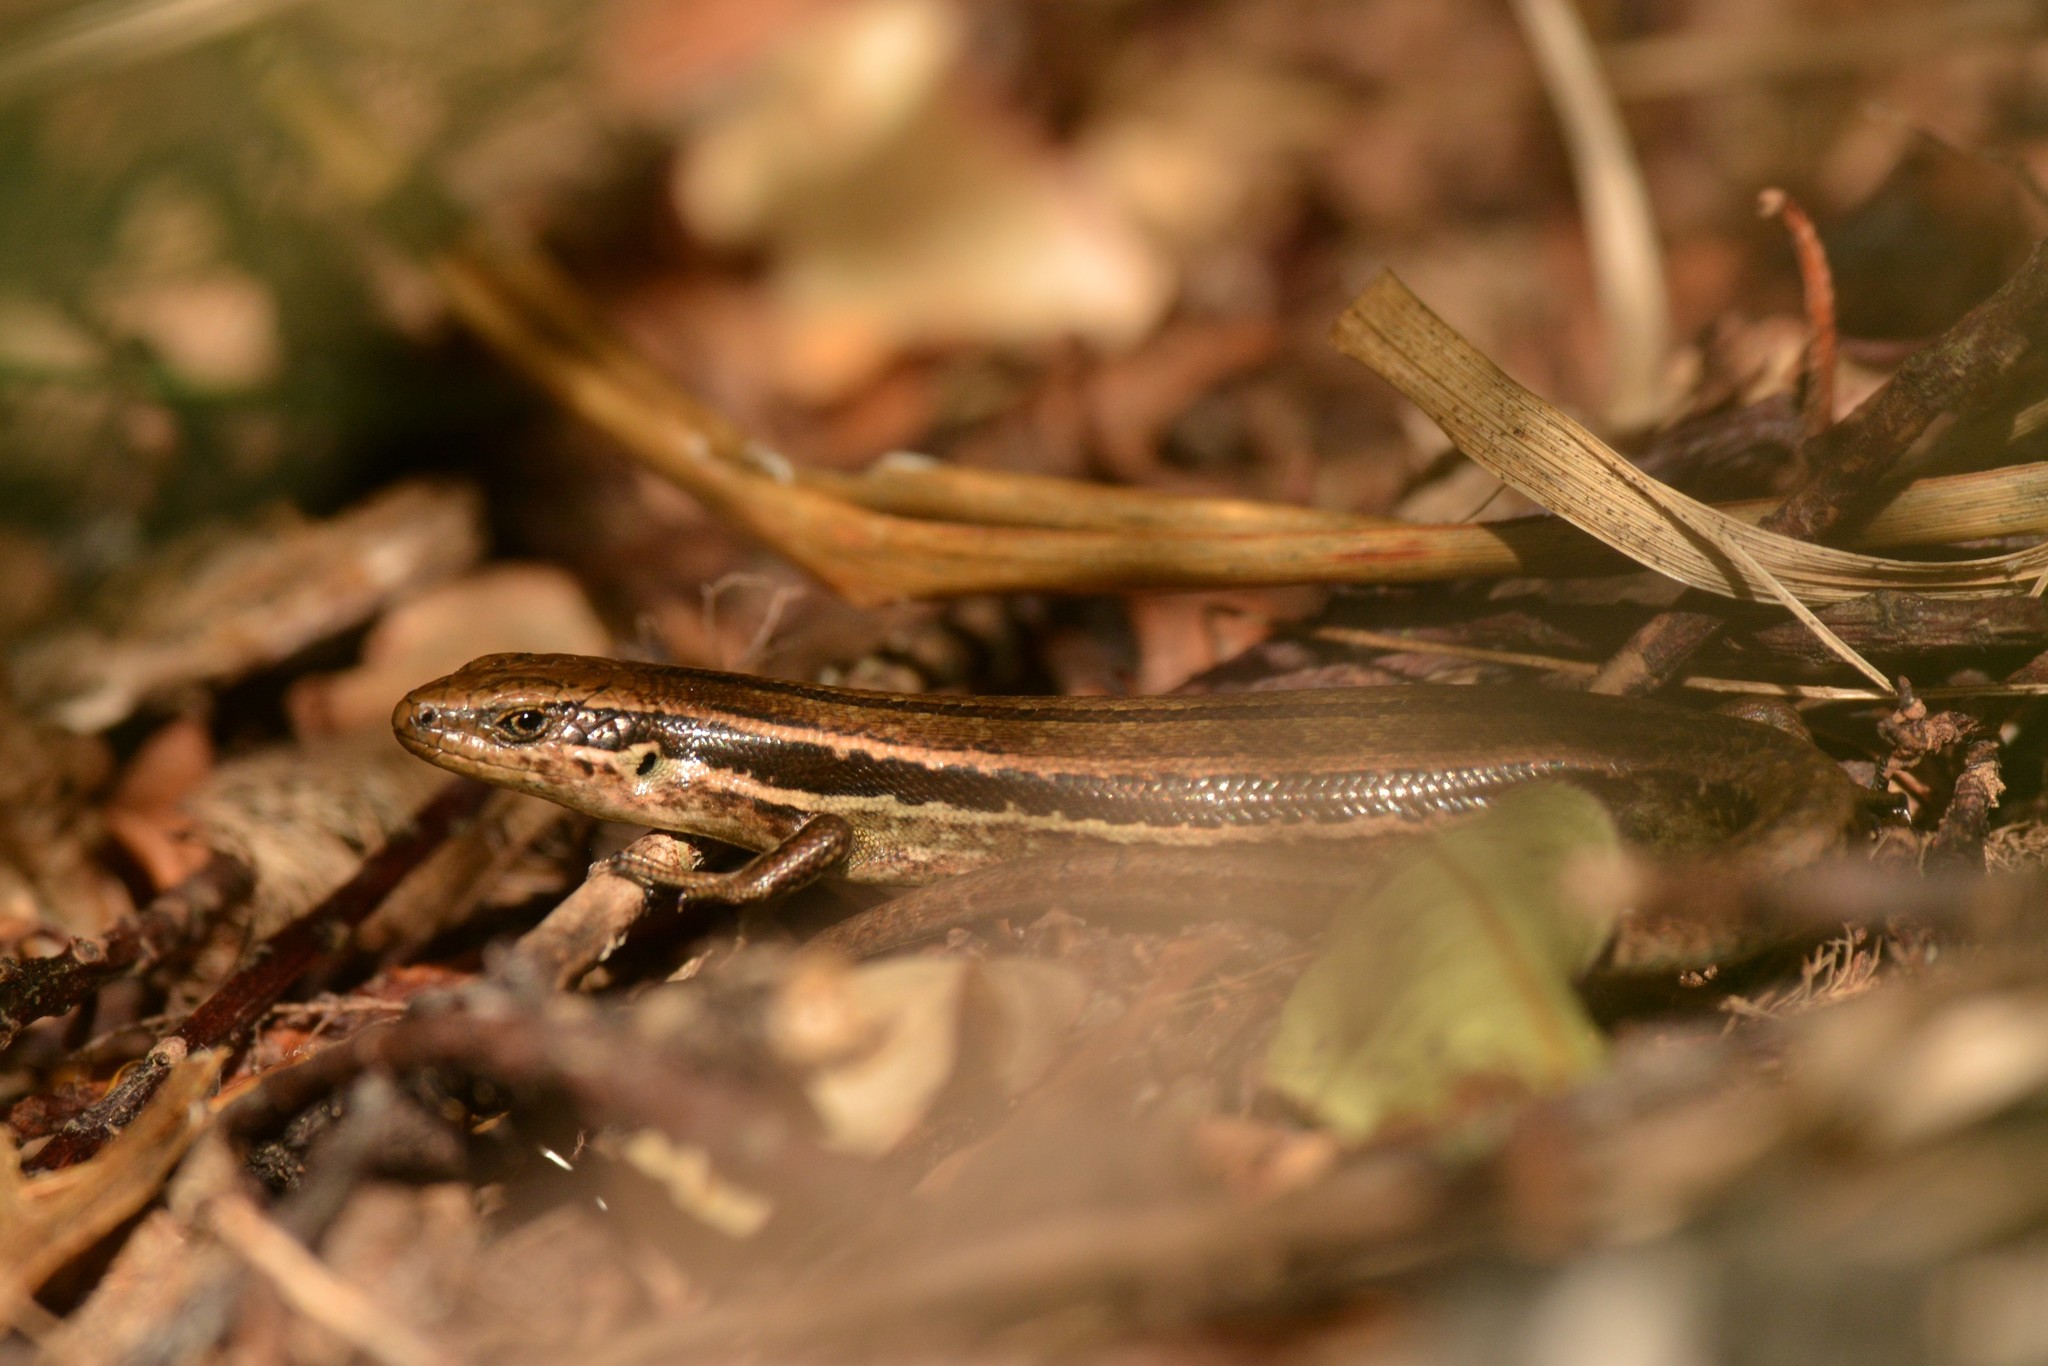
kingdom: Animalia
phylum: Chordata
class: Squamata
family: Scincidae
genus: Oligosoma
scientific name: Oligosoma polychroma
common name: Common new zealand skink
